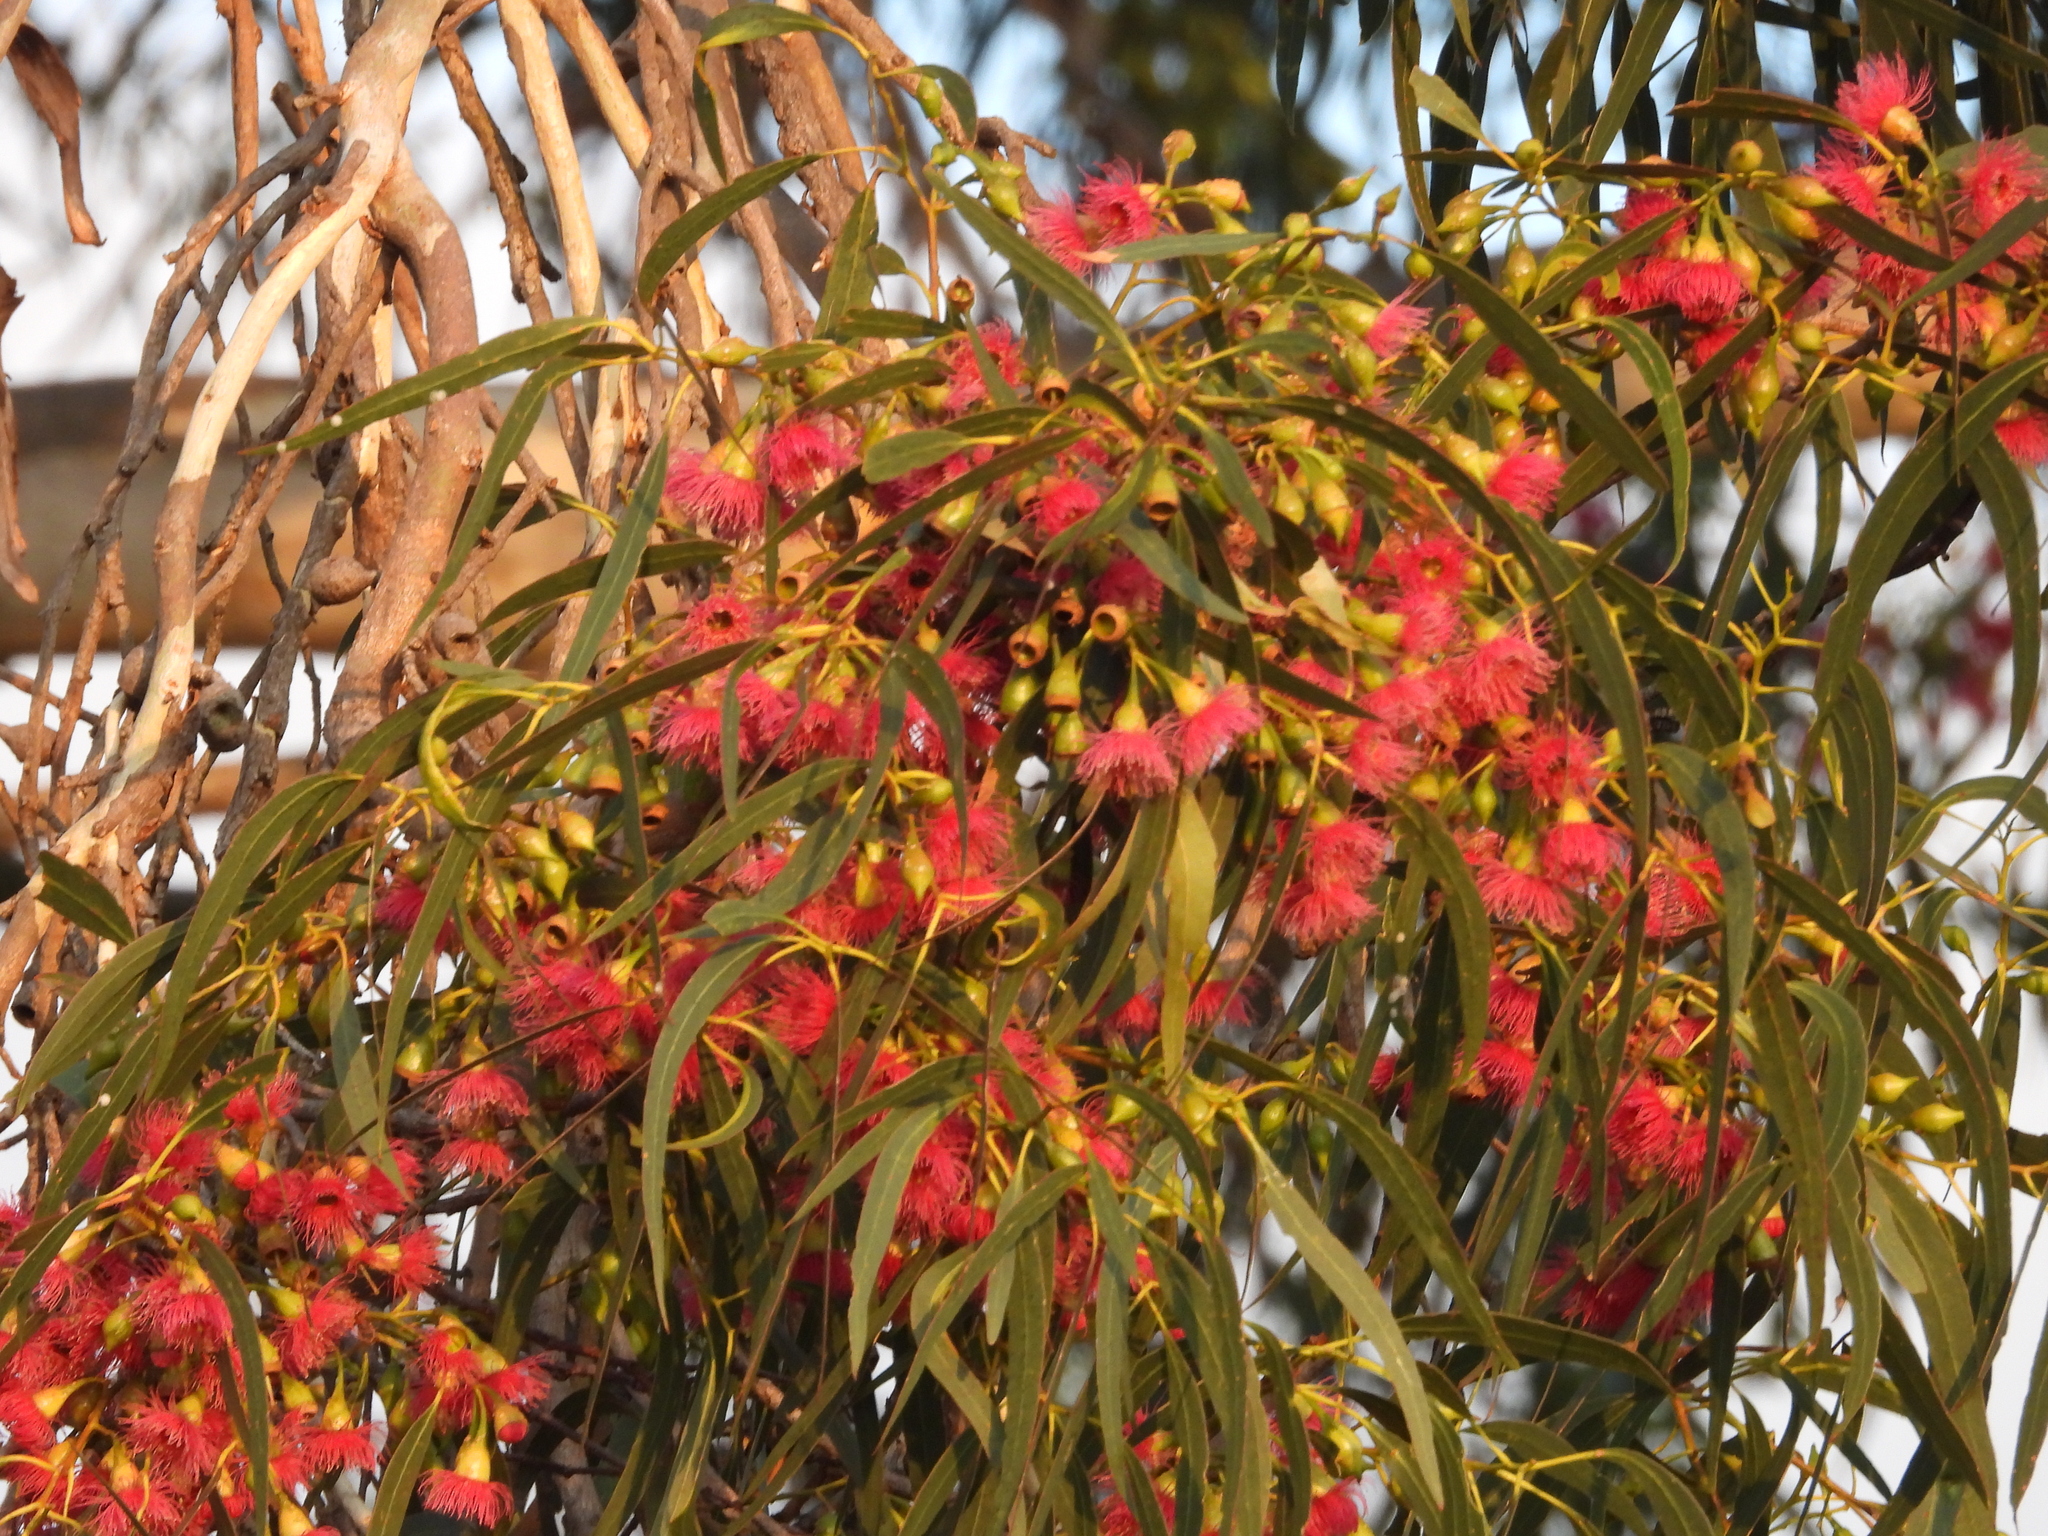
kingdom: Plantae
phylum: Tracheophyta
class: Magnoliopsida
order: Myrtales
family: Myrtaceae
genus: Eucalyptus
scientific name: Eucalyptus leucoxylon
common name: Blue gum
